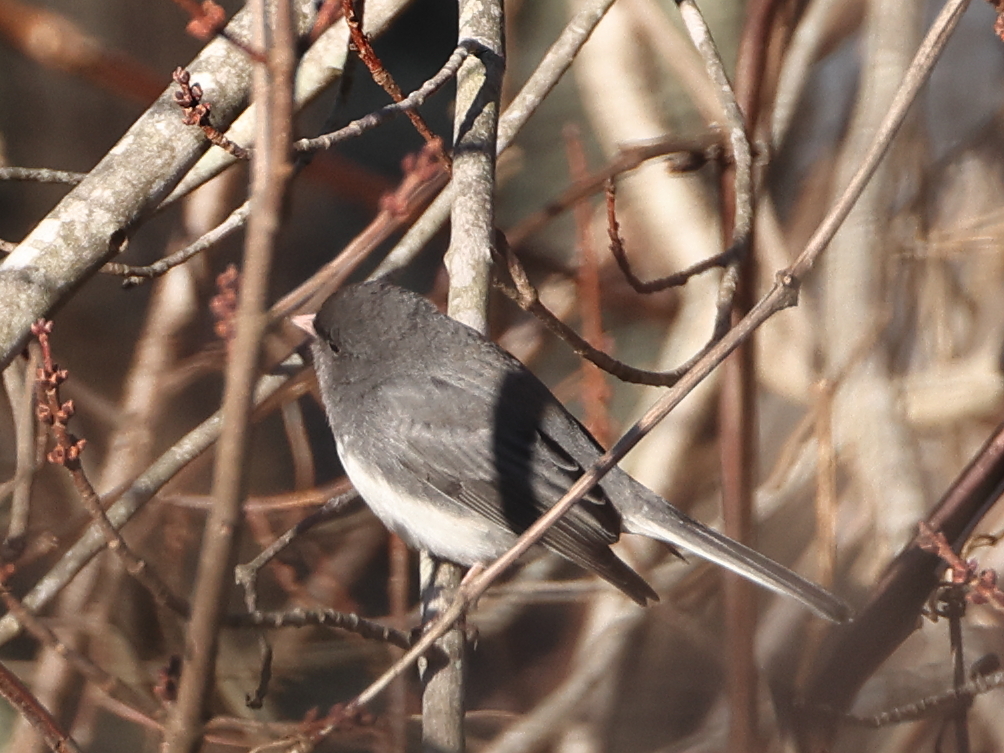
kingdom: Animalia
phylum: Chordata
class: Aves
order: Passeriformes
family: Passerellidae
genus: Junco
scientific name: Junco hyemalis
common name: Dark-eyed junco
